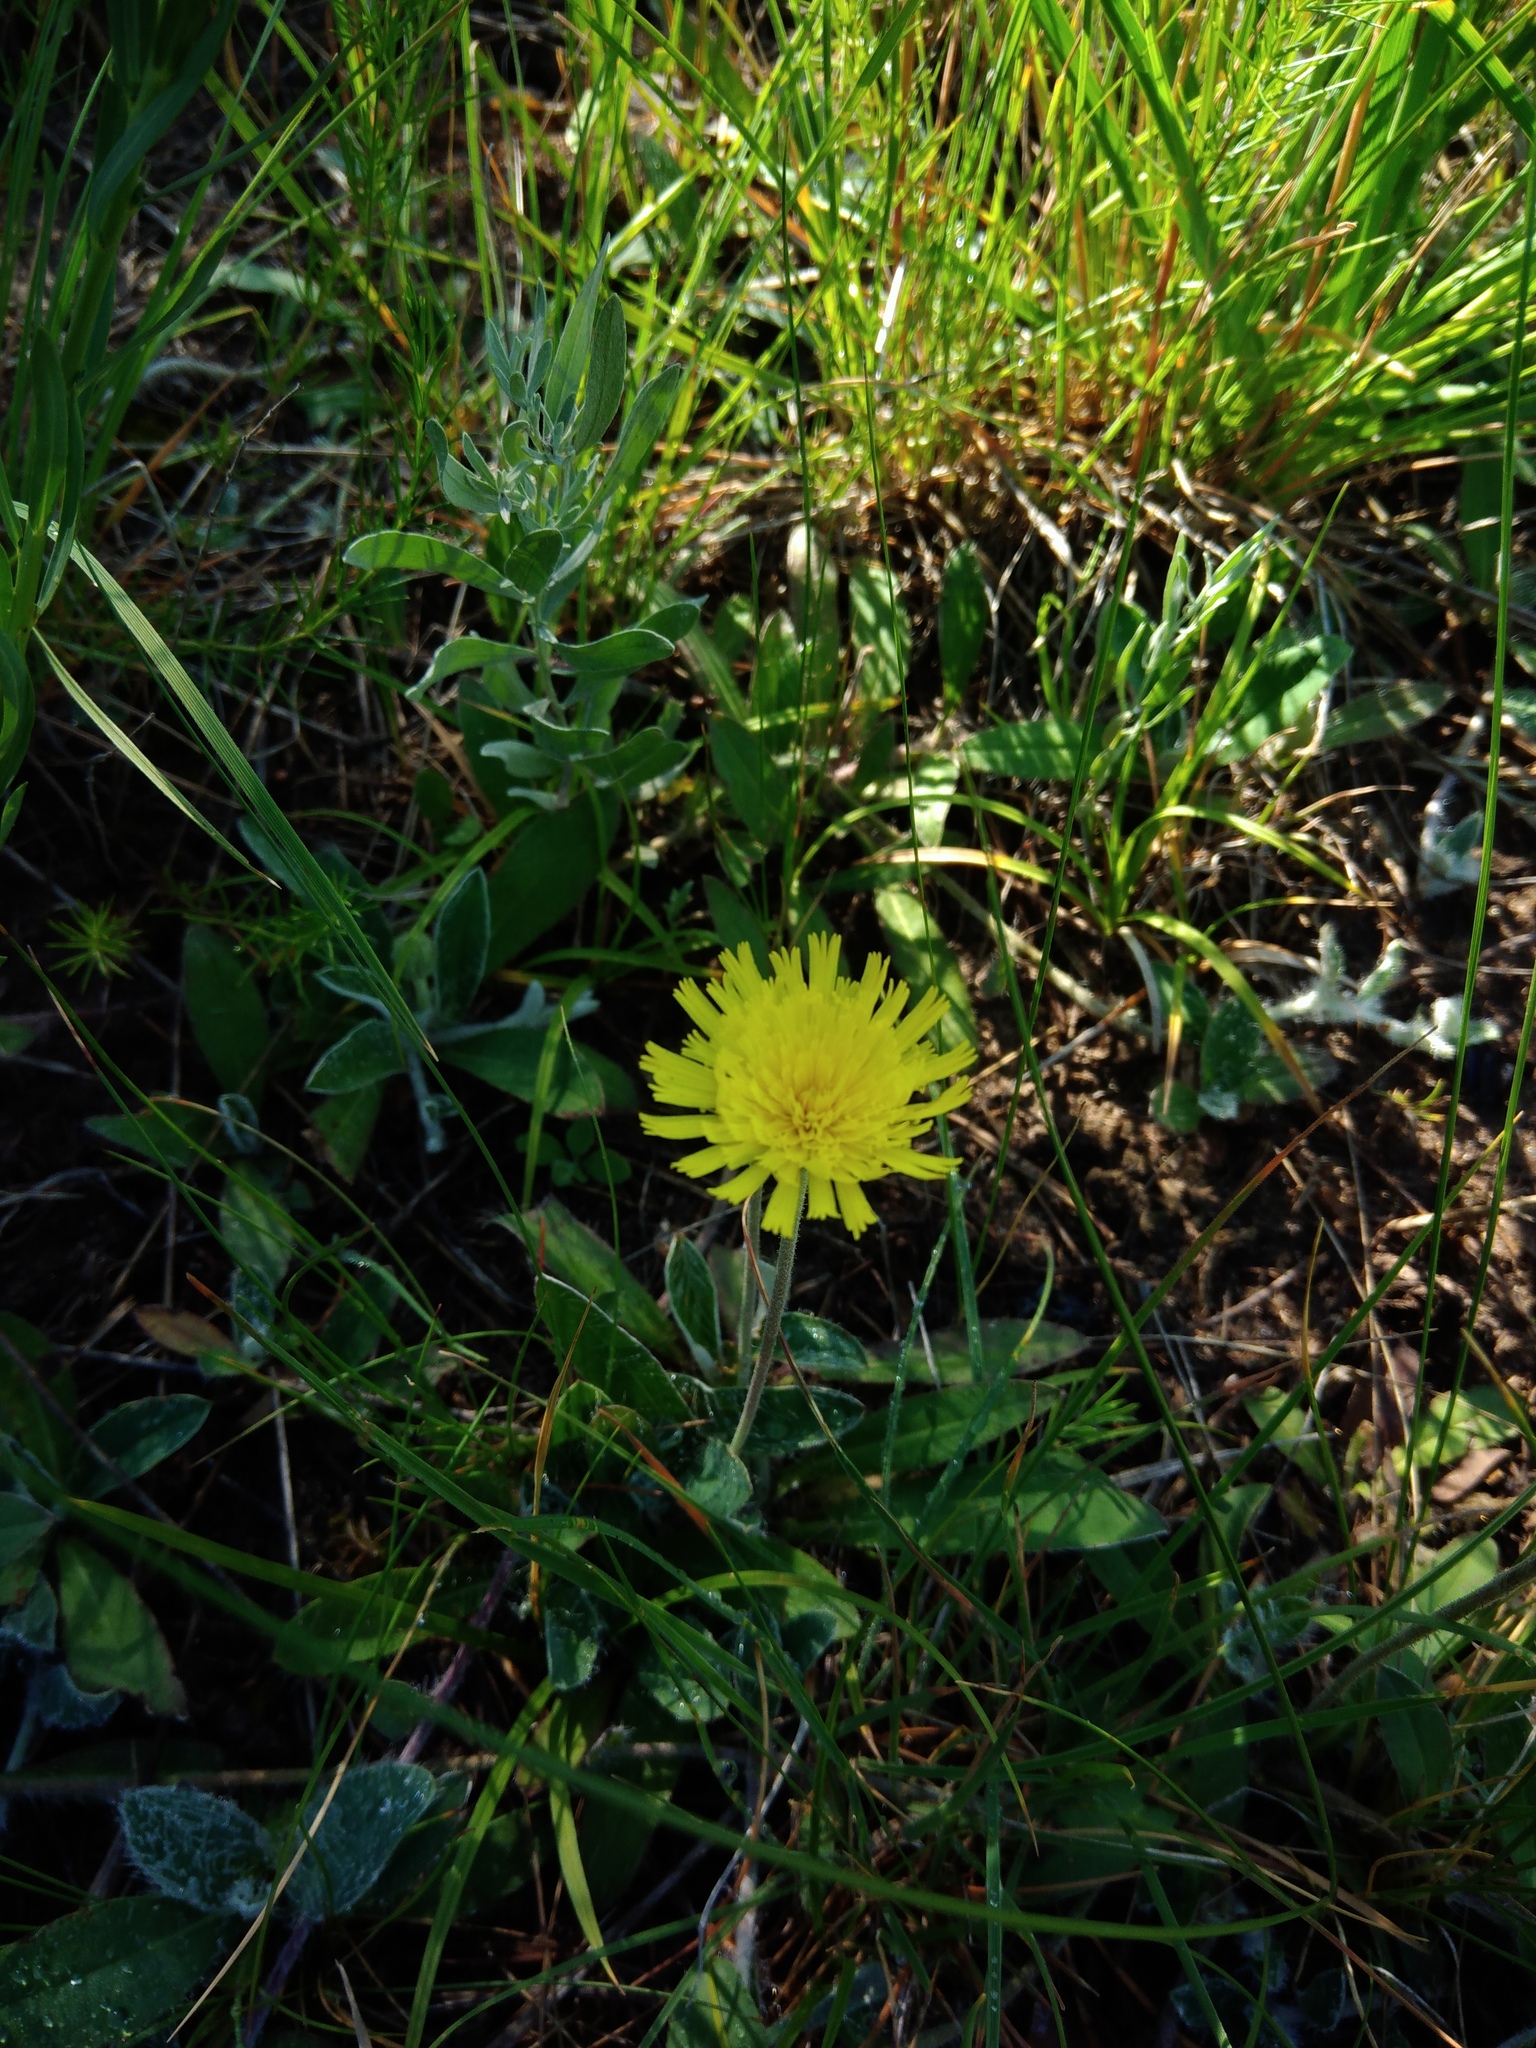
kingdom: Plantae
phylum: Tracheophyta
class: Magnoliopsida
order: Asterales
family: Asteraceae
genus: Pilosella
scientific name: Pilosella officinarum
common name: Mouse-ear hawkweed
